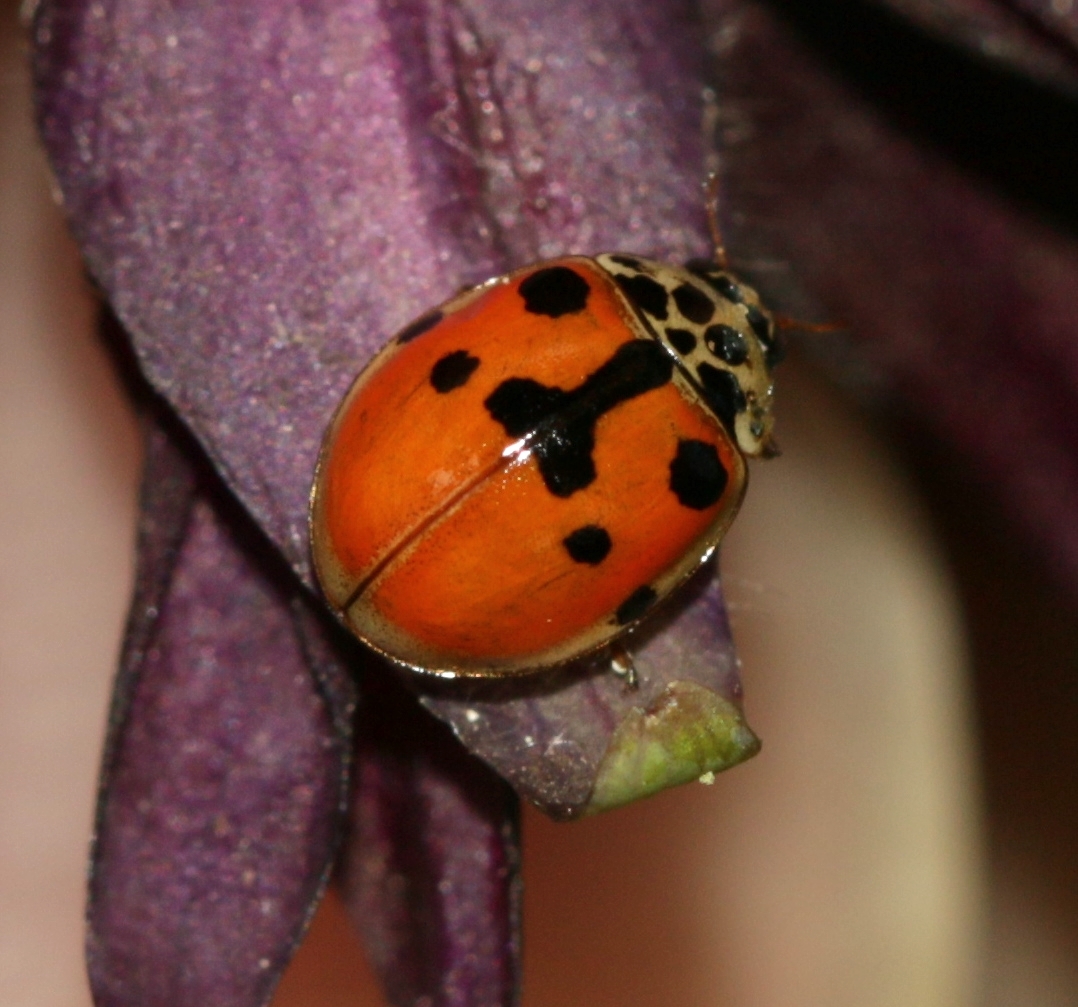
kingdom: Animalia
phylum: Arthropoda
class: Insecta
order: Coleoptera
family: Coccinellidae
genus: Adalia
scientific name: Adalia decempunctata
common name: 10-spot ladybird
